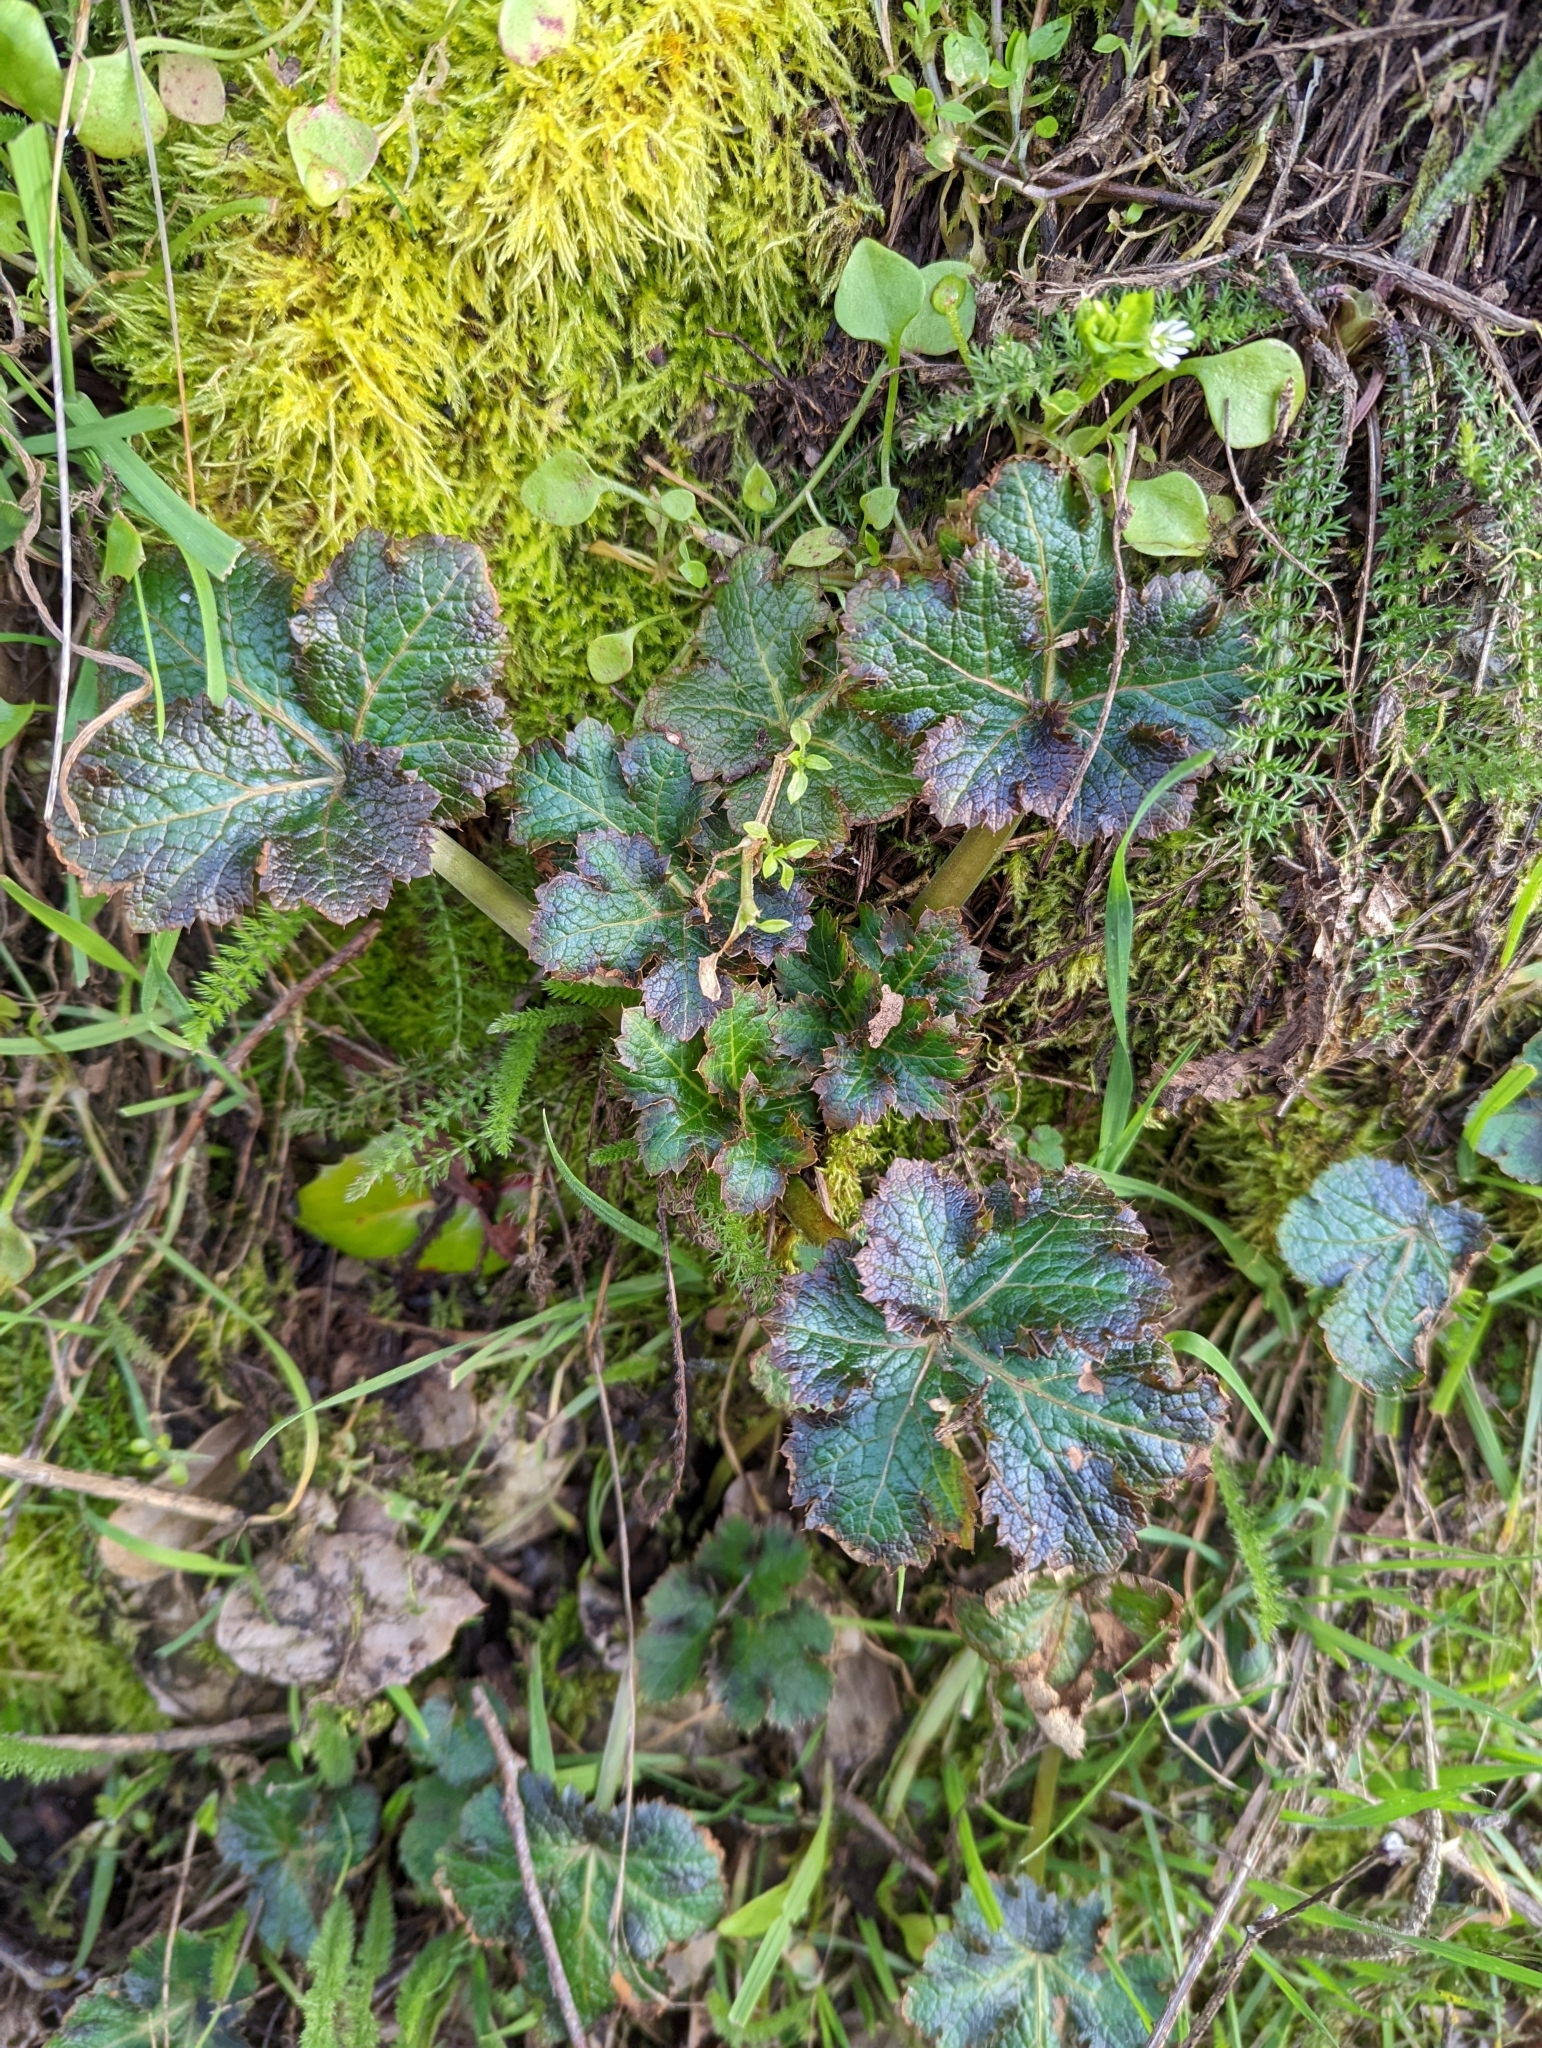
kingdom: Plantae
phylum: Tracheophyta
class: Magnoliopsida
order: Apiales
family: Apiaceae
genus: Sanicula
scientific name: Sanicula crassicaulis
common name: Western snakeroot
